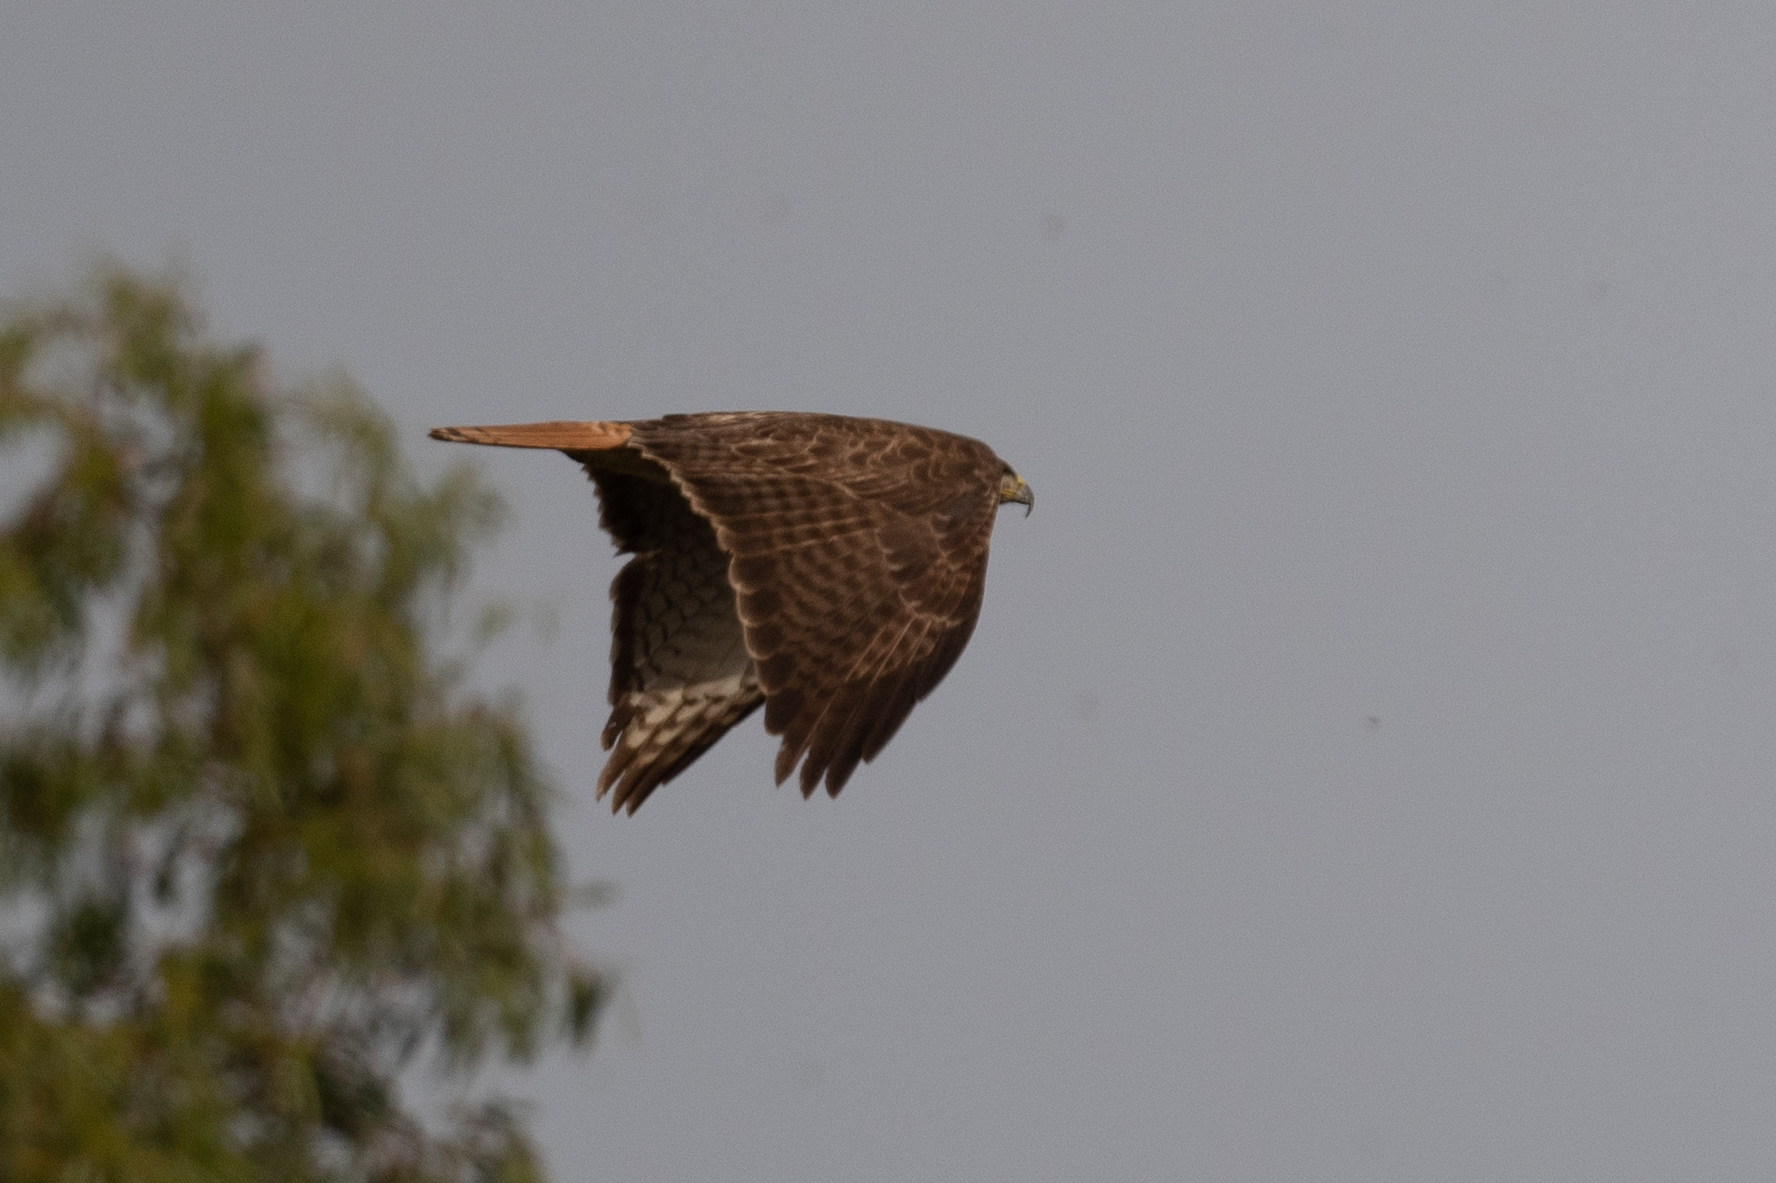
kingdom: Animalia
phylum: Chordata
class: Aves
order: Accipitriformes
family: Accipitridae
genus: Buteo
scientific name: Buteo jamaicensis
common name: Red-tailed hawk
